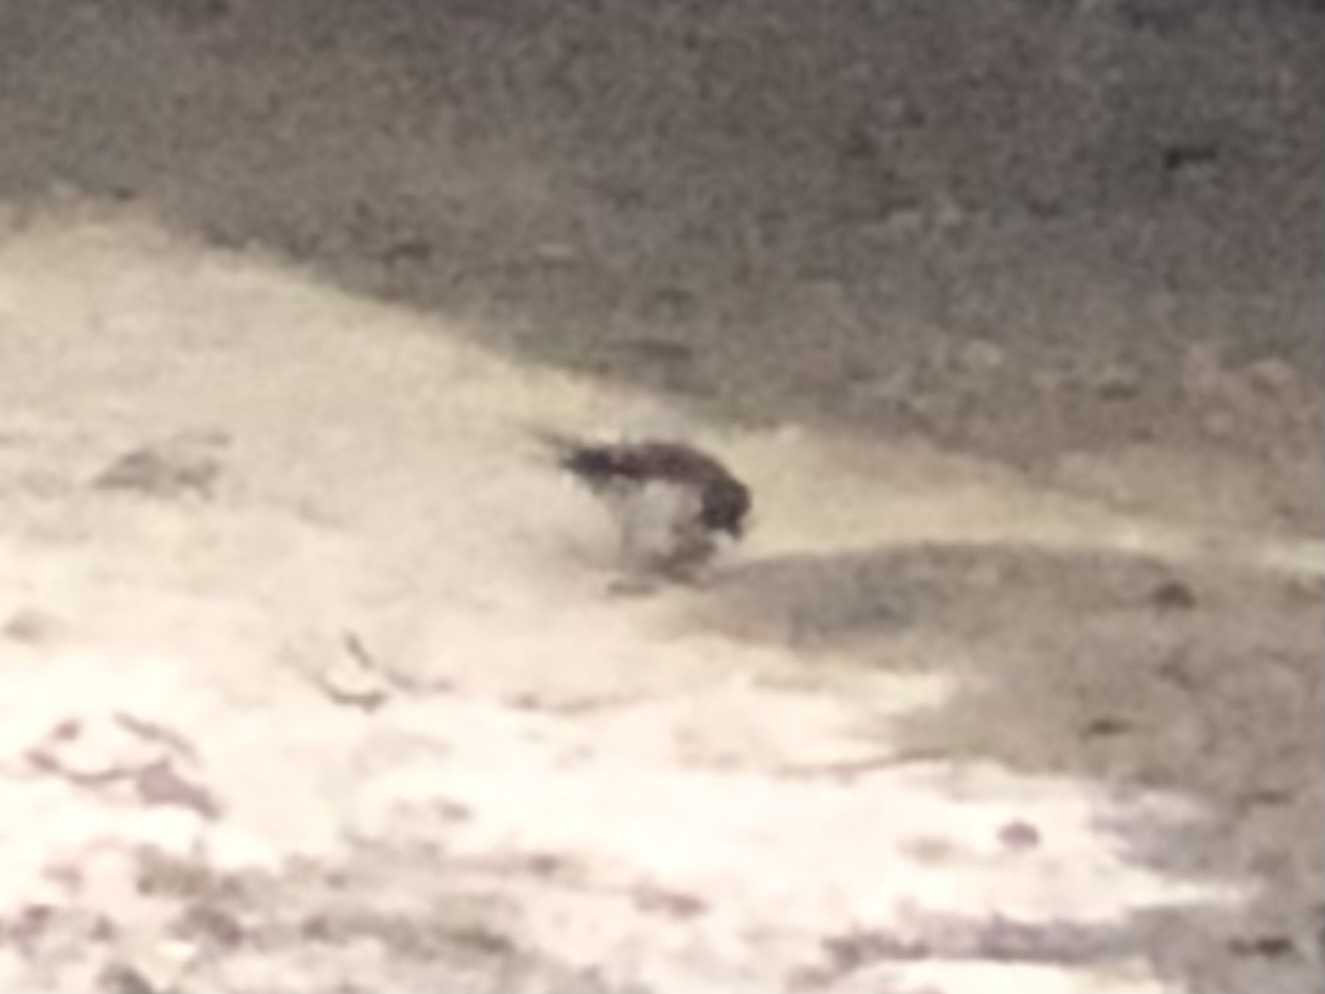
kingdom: Animalia
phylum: Chordata
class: Aves
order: Passeriformes
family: Muscicapidae
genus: Erithacus
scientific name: Erithacus rubecula
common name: European robin
